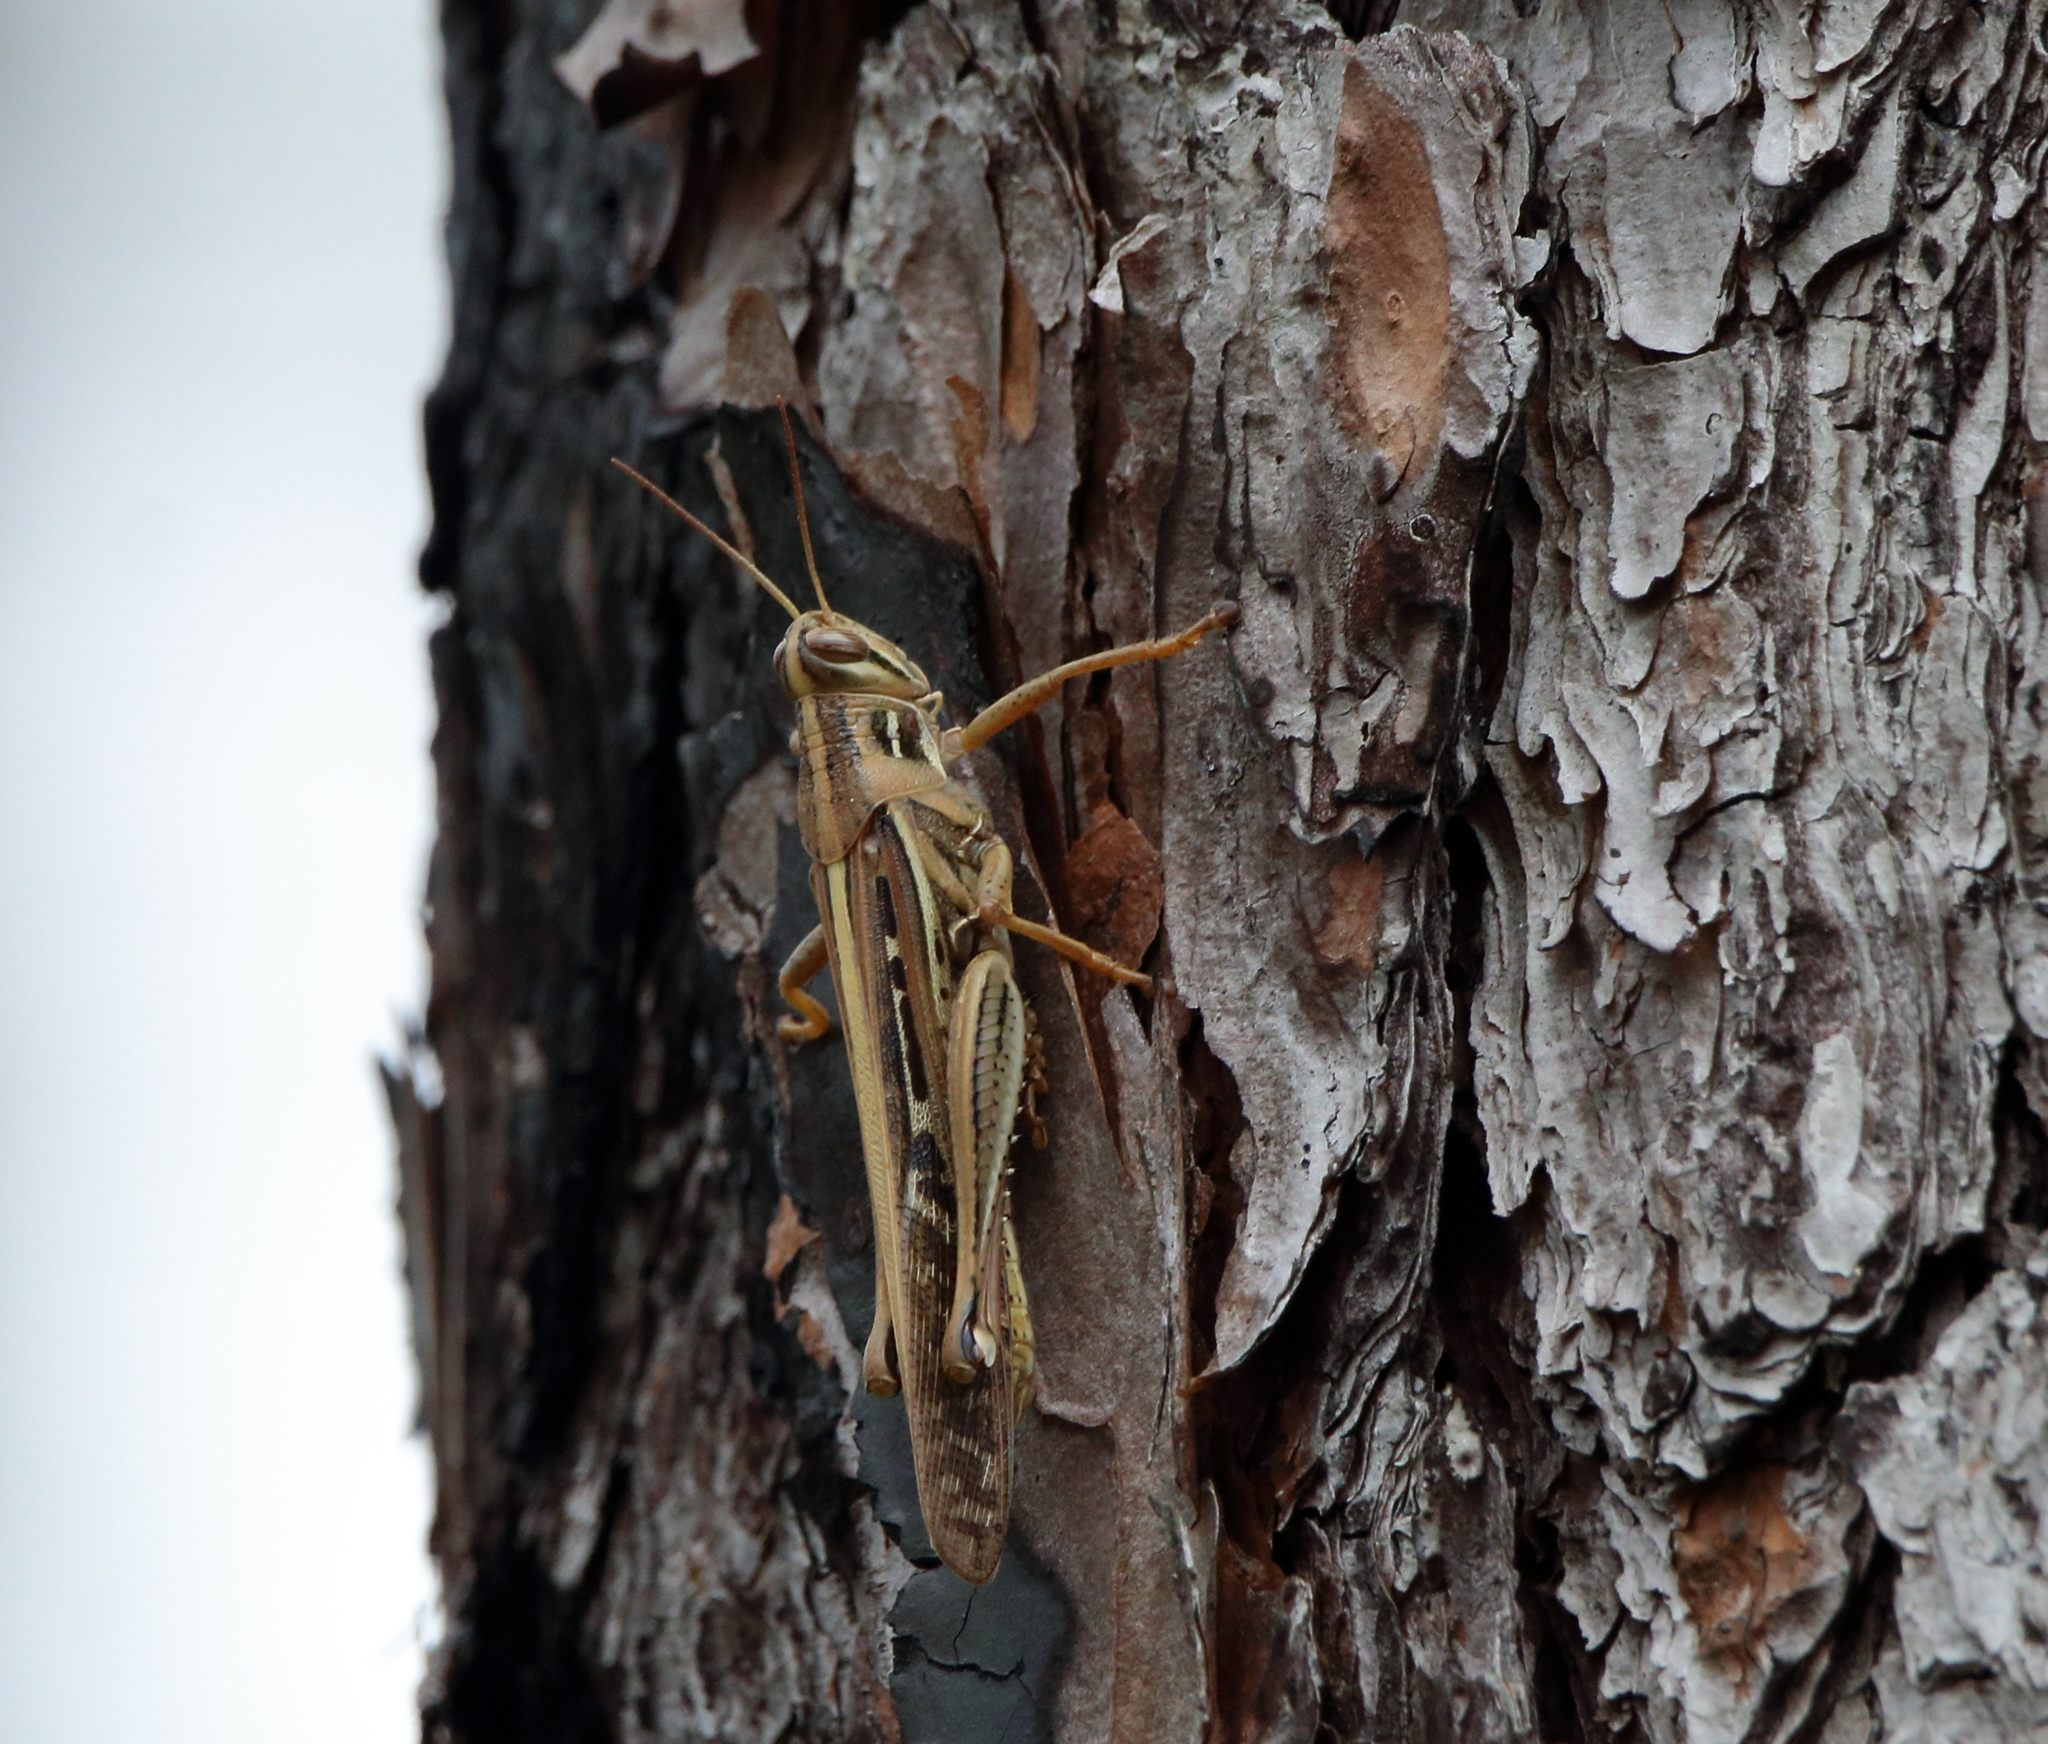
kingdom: Animalia
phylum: Arthropoda
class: Insecta
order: Orthoptera
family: Acrididae
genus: Schistocerca
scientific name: Schistocerca americana
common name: American bird locust
